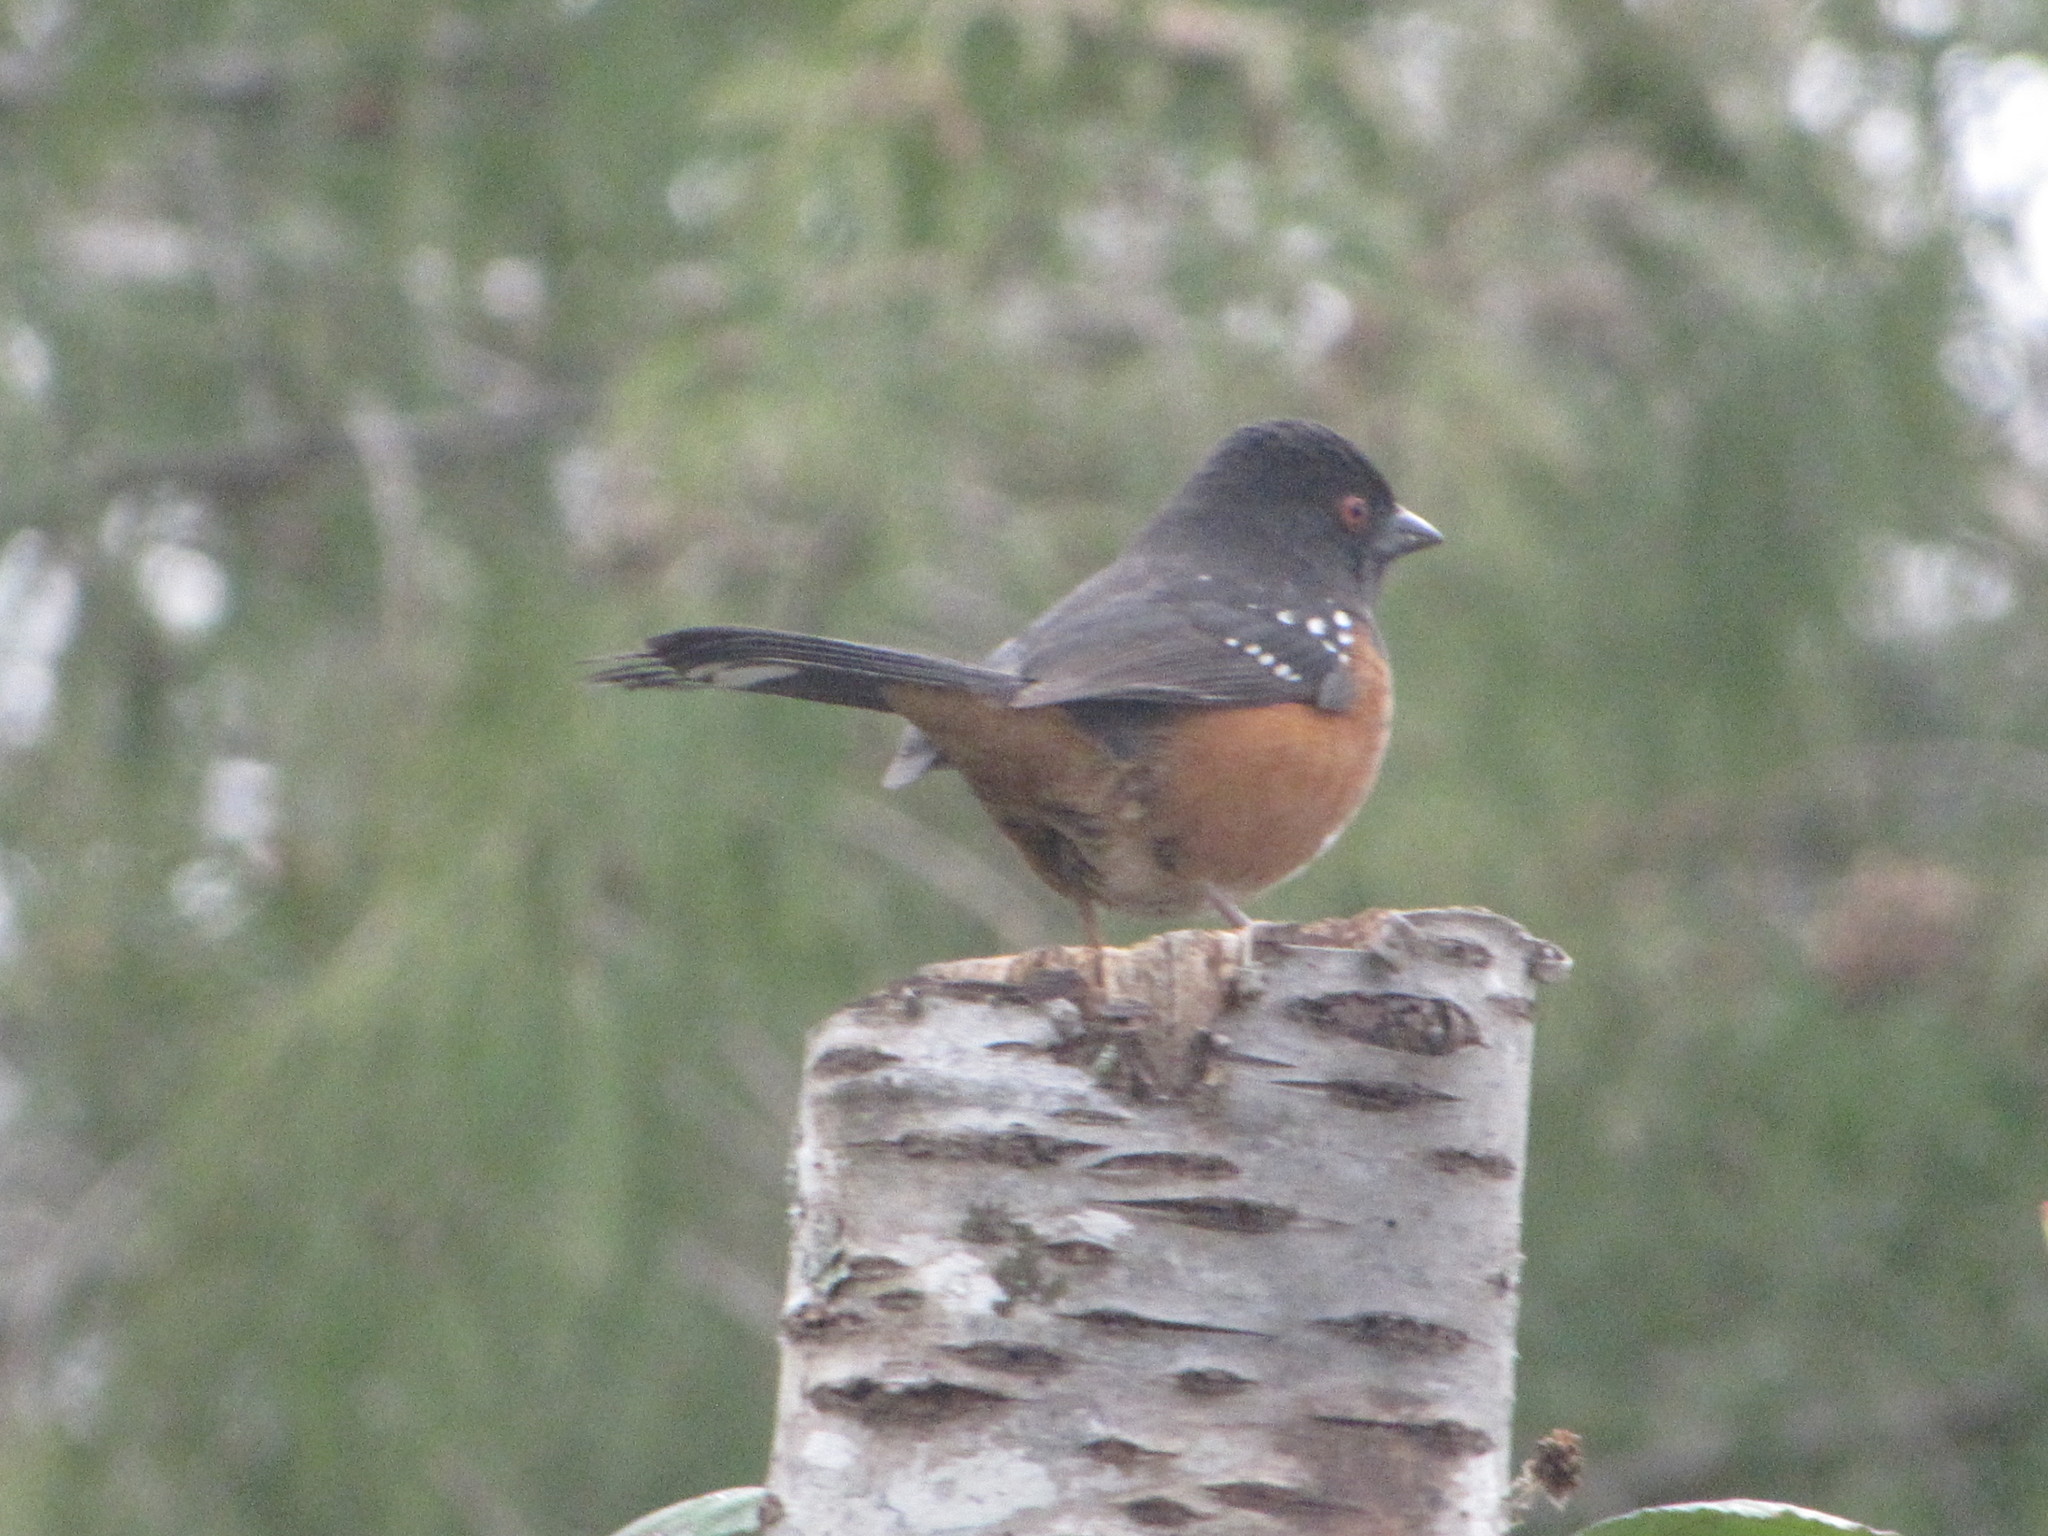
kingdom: Animalia
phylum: Chordata
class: Aves
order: Passeriformes
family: Passerellidae
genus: Pipilo
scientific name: Pipilo maculatus
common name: Spotted towhee
